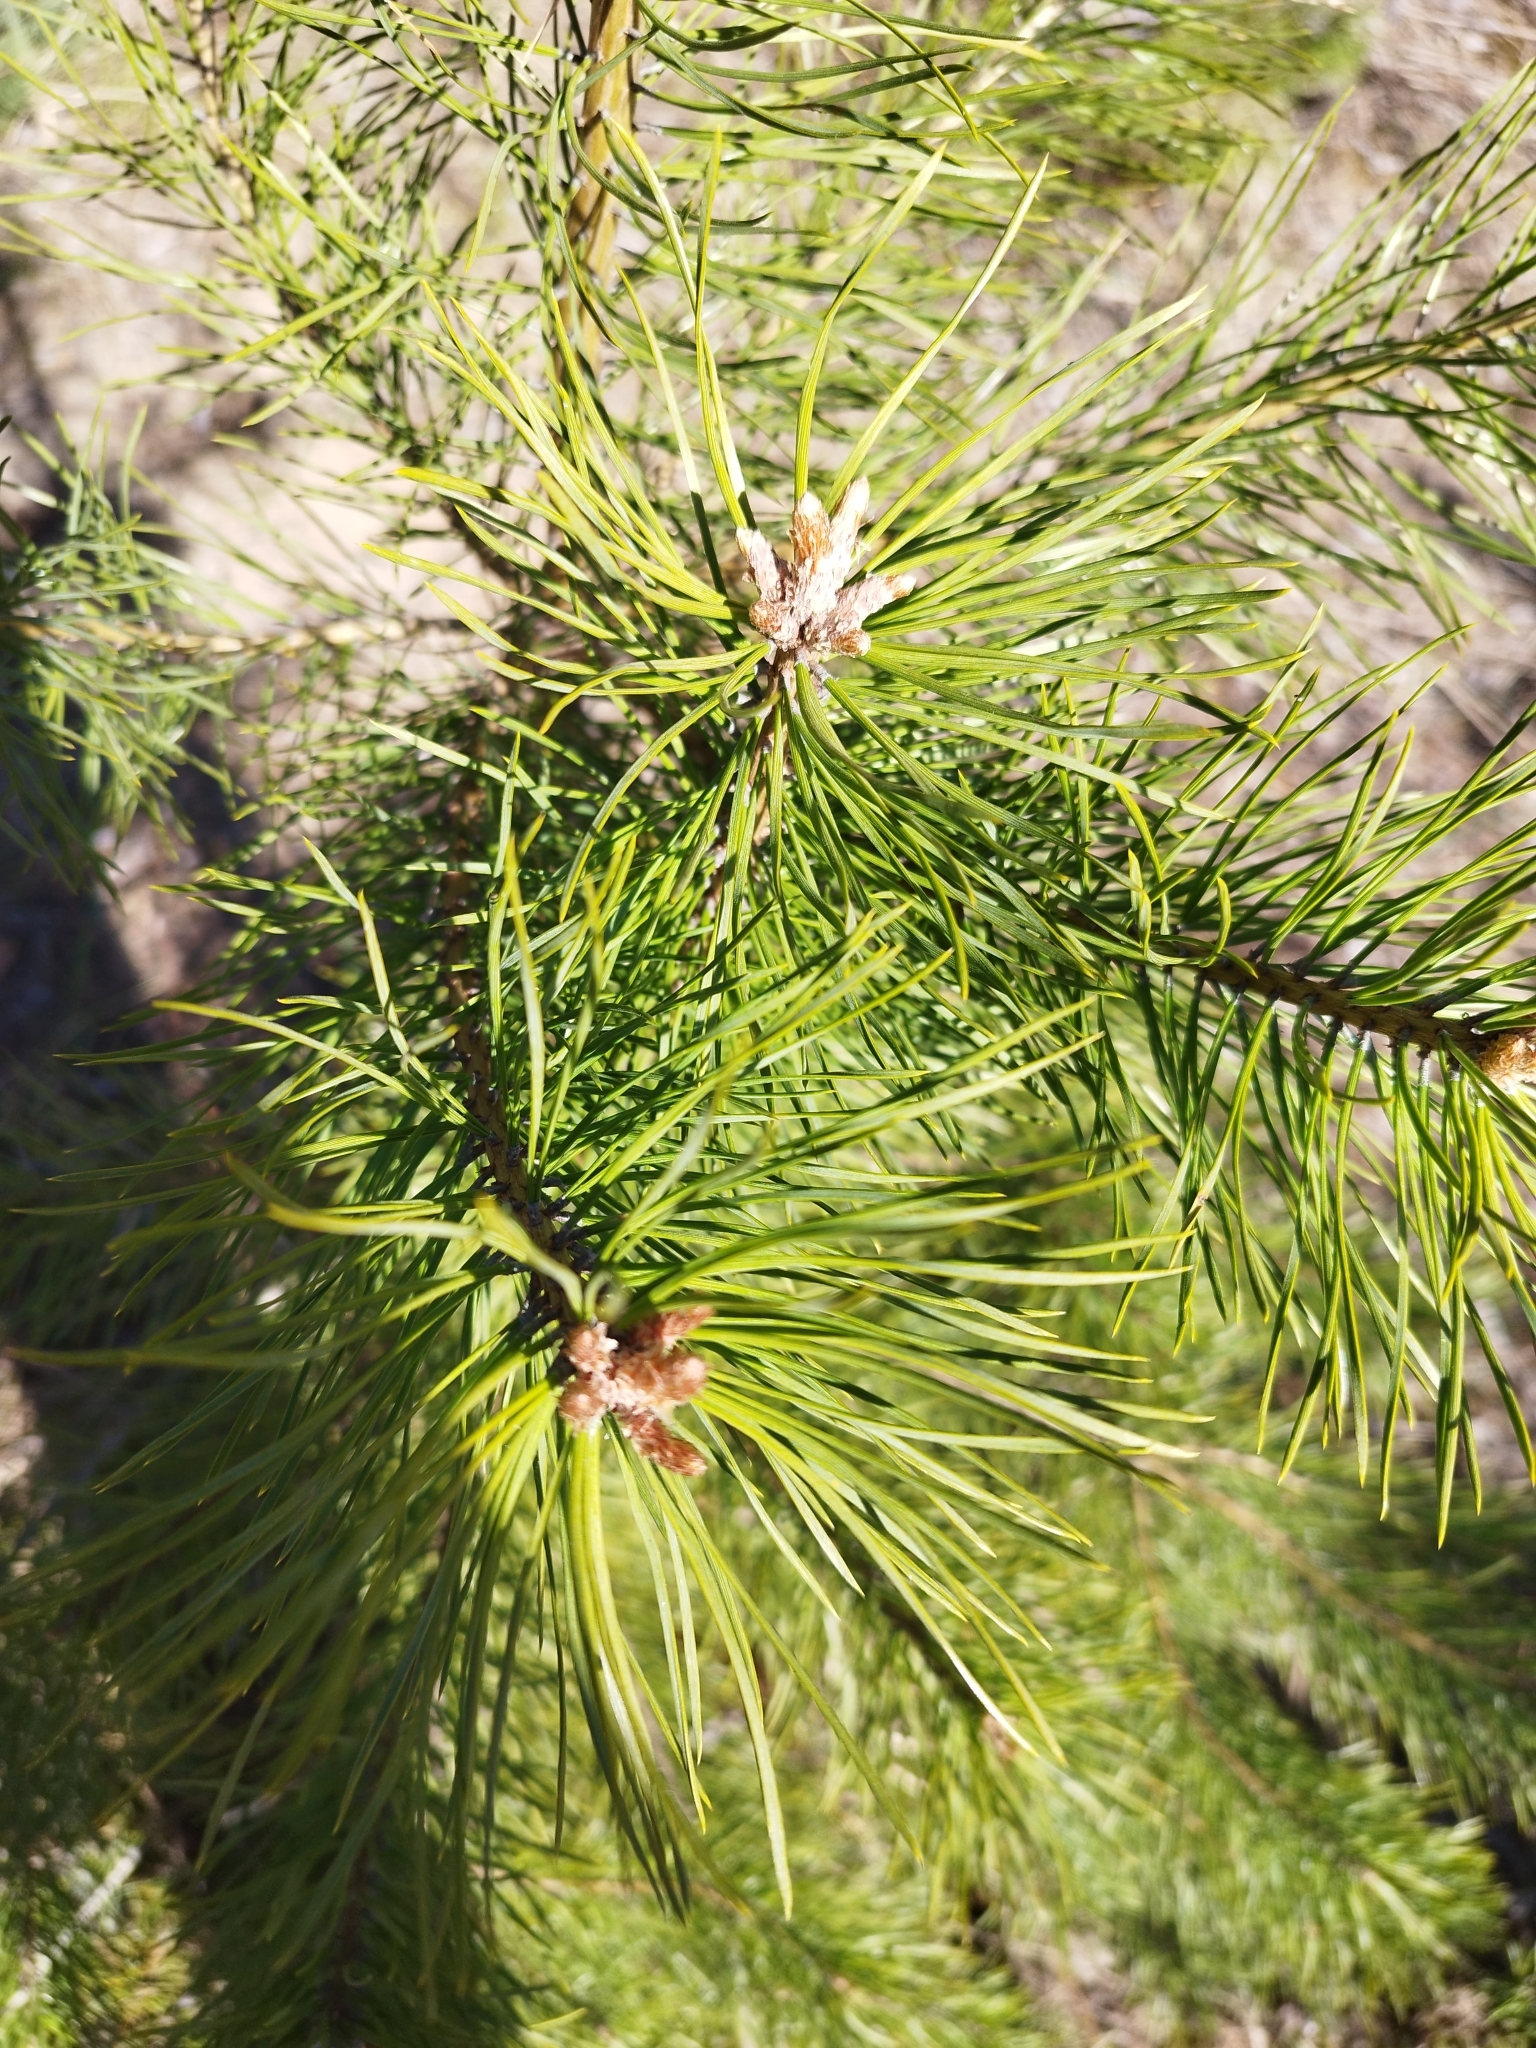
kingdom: Plantae
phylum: Tracheophyta
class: Pinopsida
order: Pinales
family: Pinaceae
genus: Pinus
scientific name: Pinus sylvestris
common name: Scots pine
